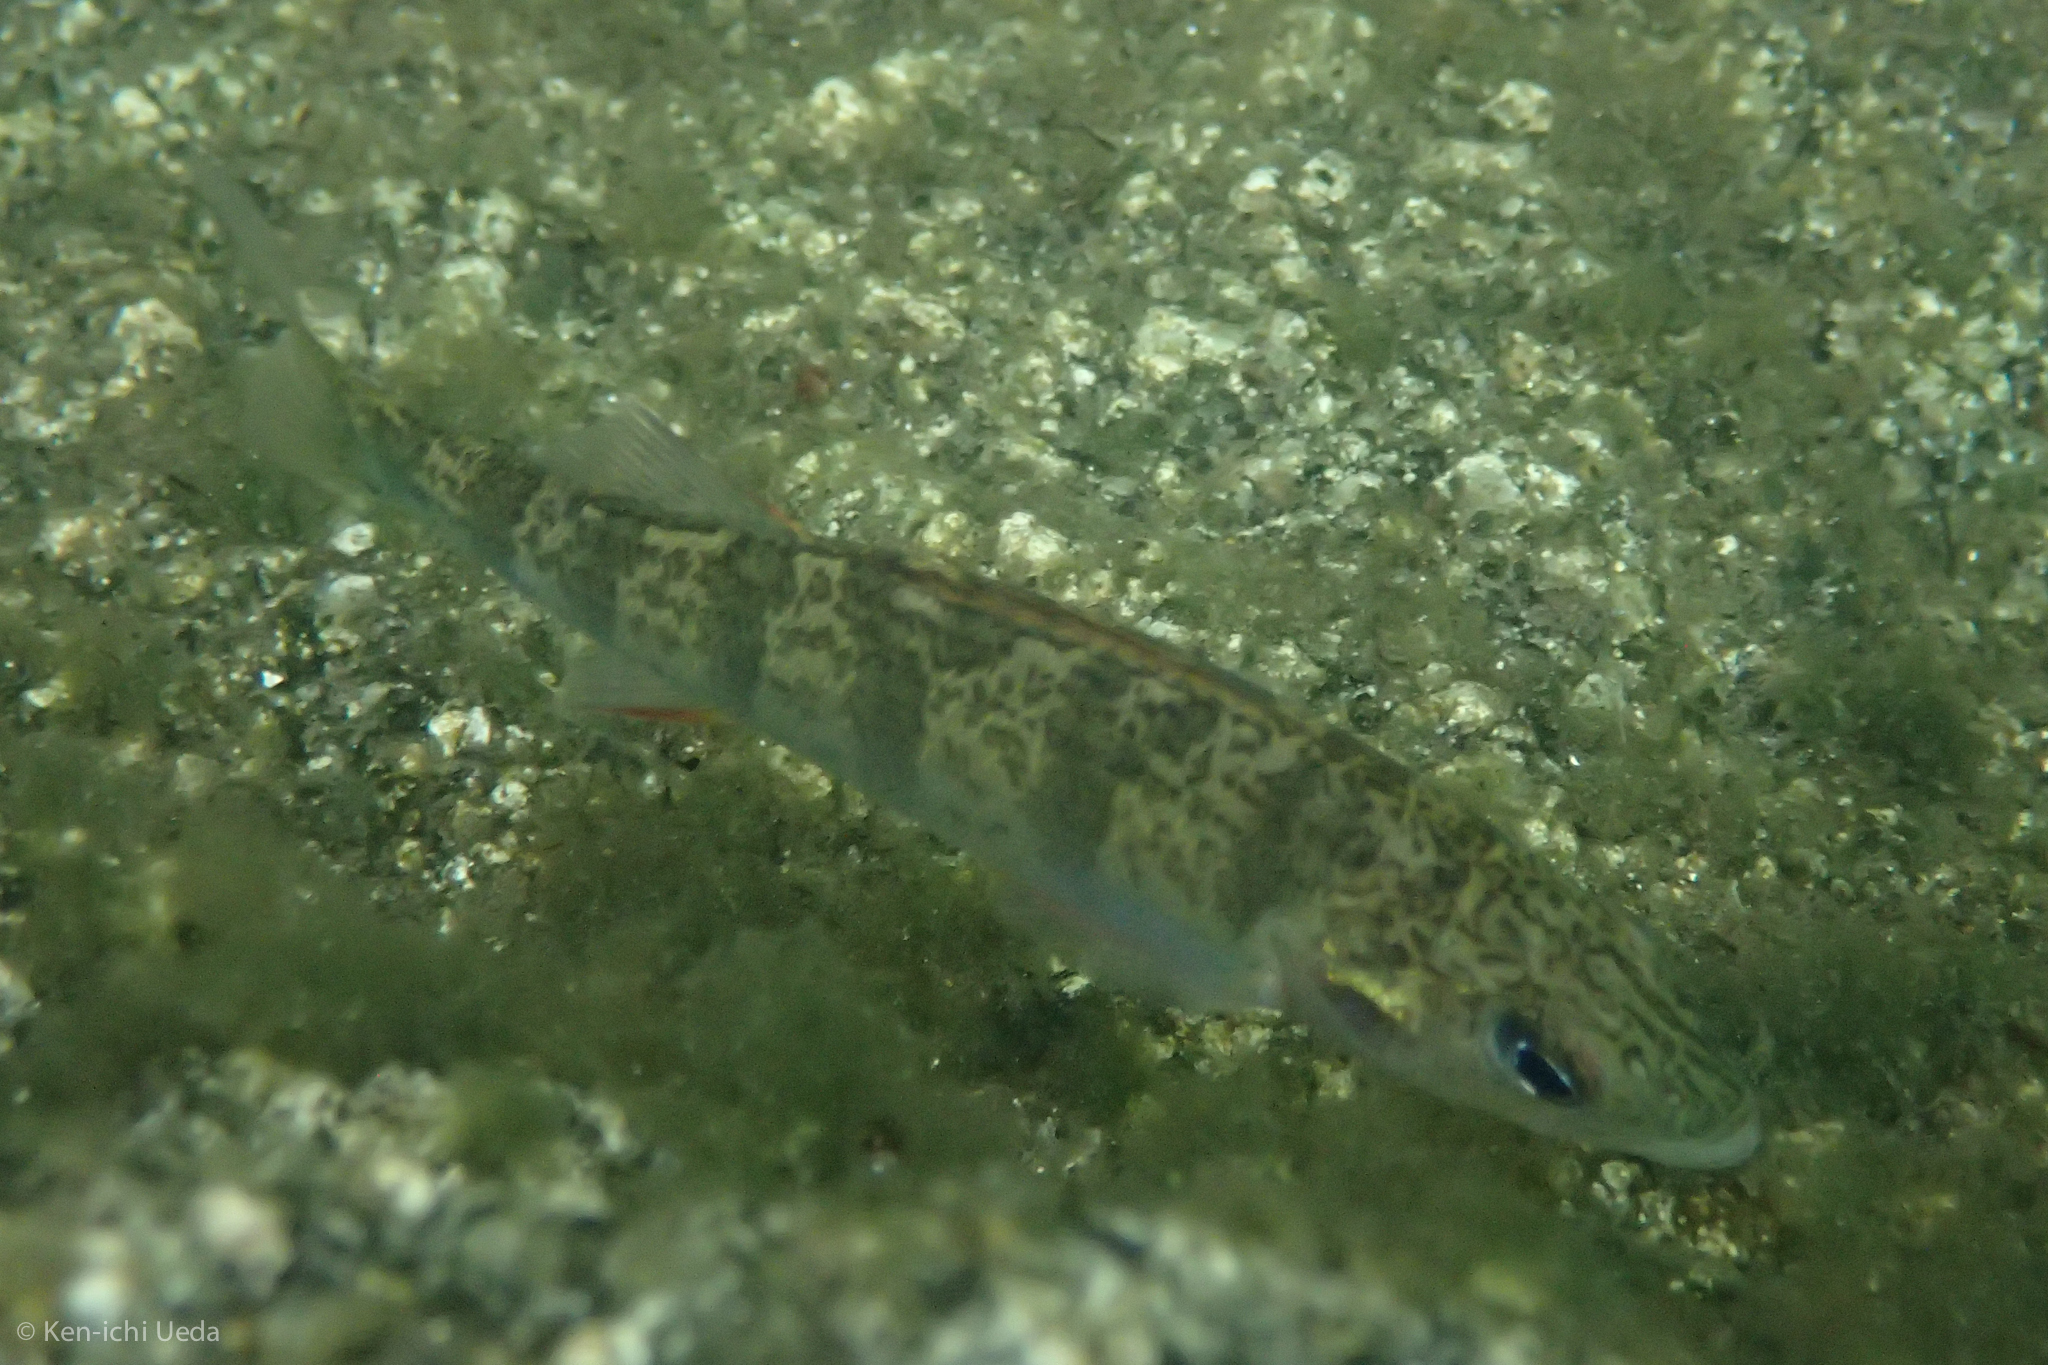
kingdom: Animalia
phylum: Chordata
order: Perciformes
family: Percidae
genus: Perca
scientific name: Perca flavescens
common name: Yellow perch
